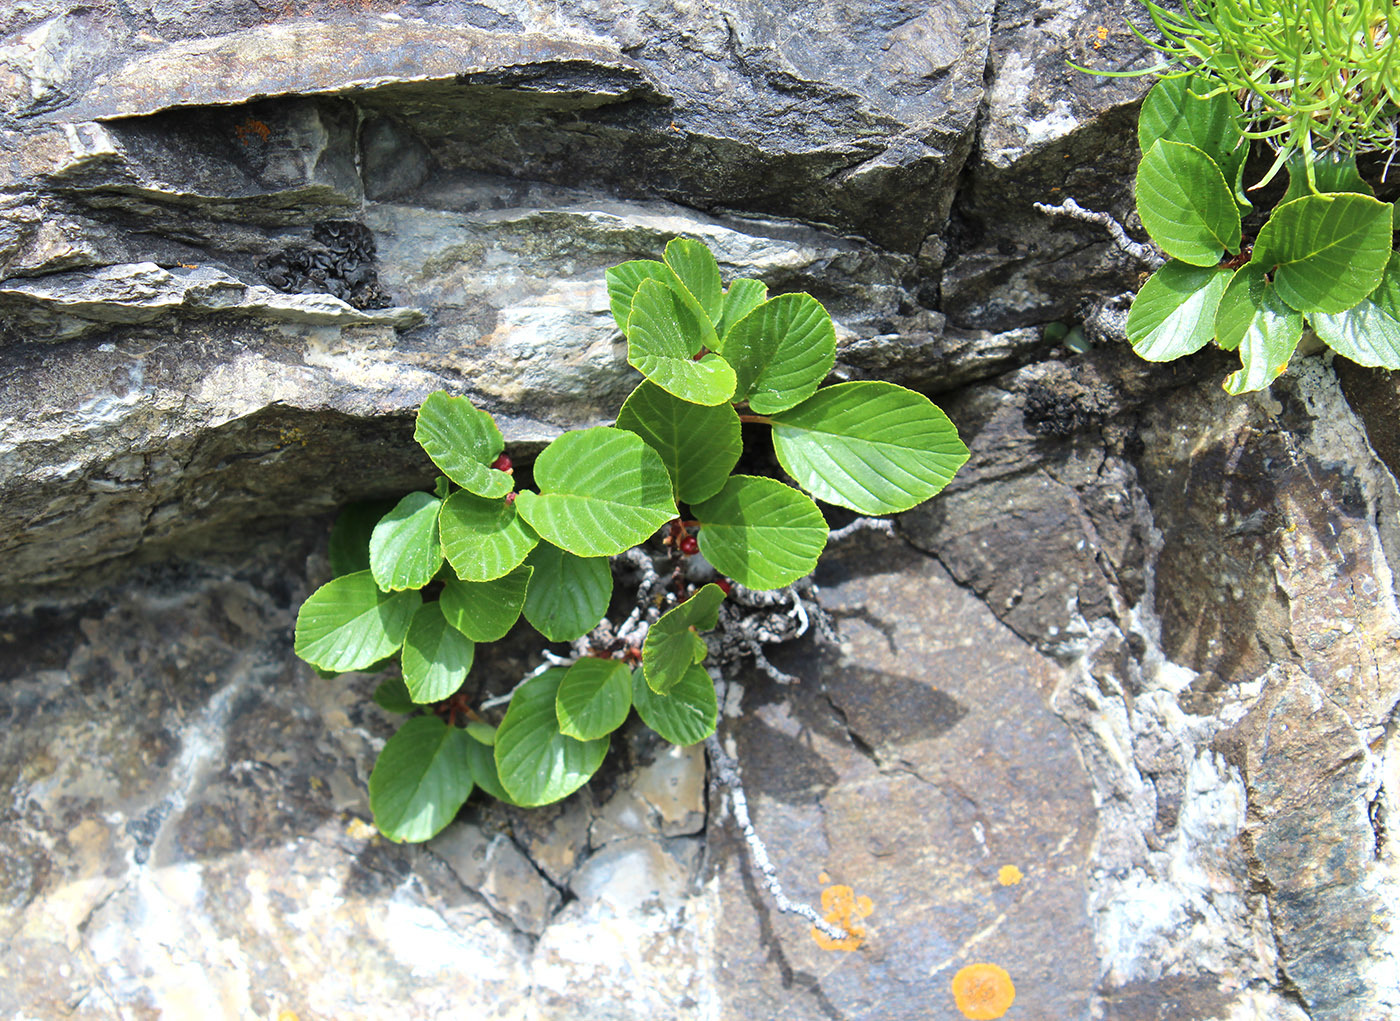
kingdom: Plantae
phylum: Tracheophyta
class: Magnoliopsida
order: Rosales
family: Rhamnaceae
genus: Atadinus
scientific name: Atadinus microcarpus
